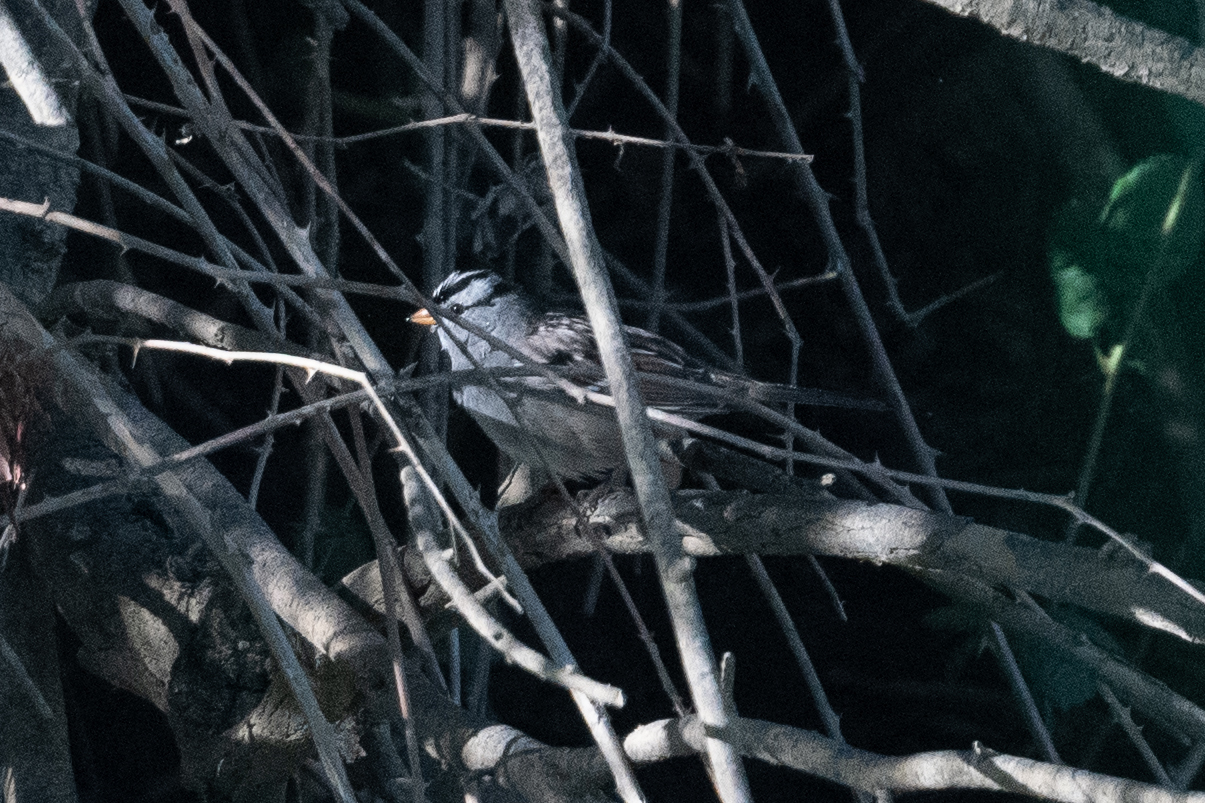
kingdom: Animalia
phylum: Chordata
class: Aves
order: Passeriformes
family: Passerellidae
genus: Zonotrichia
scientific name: Zonotrichia leucophrys
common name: White-crowned sparrow
